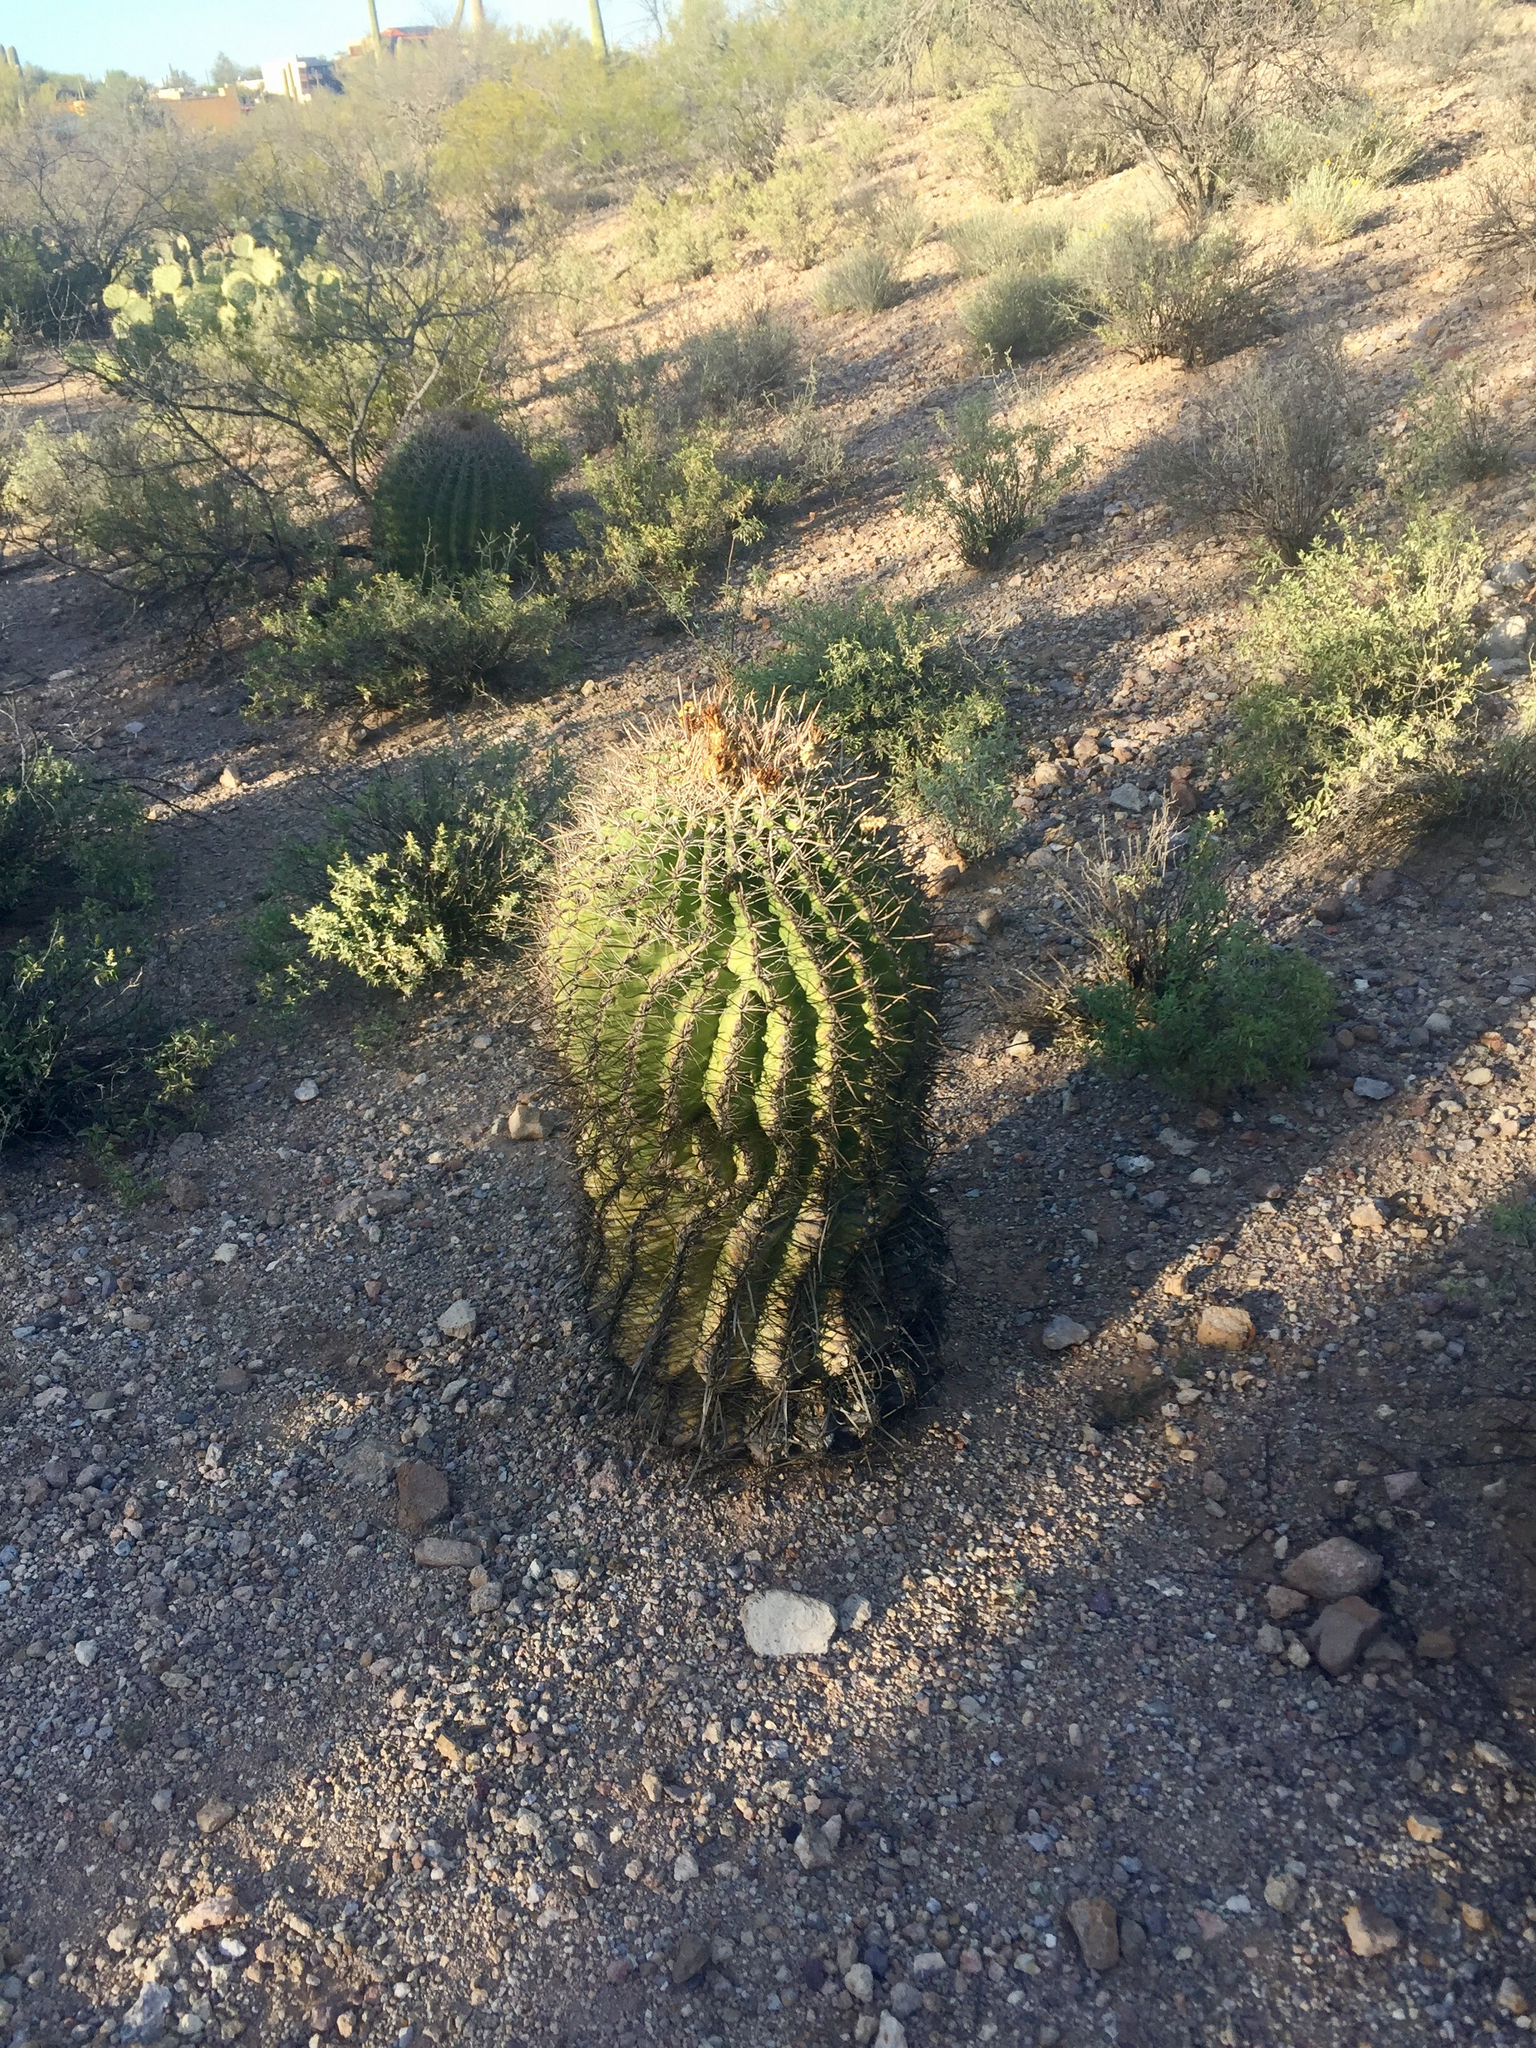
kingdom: Plantae
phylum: Tracheophyta
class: Magnoliopsida
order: Caryophyllales
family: Cactaceae
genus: Ferocactus
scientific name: Ferocactus wislizeni
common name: Candy barrel cactus
